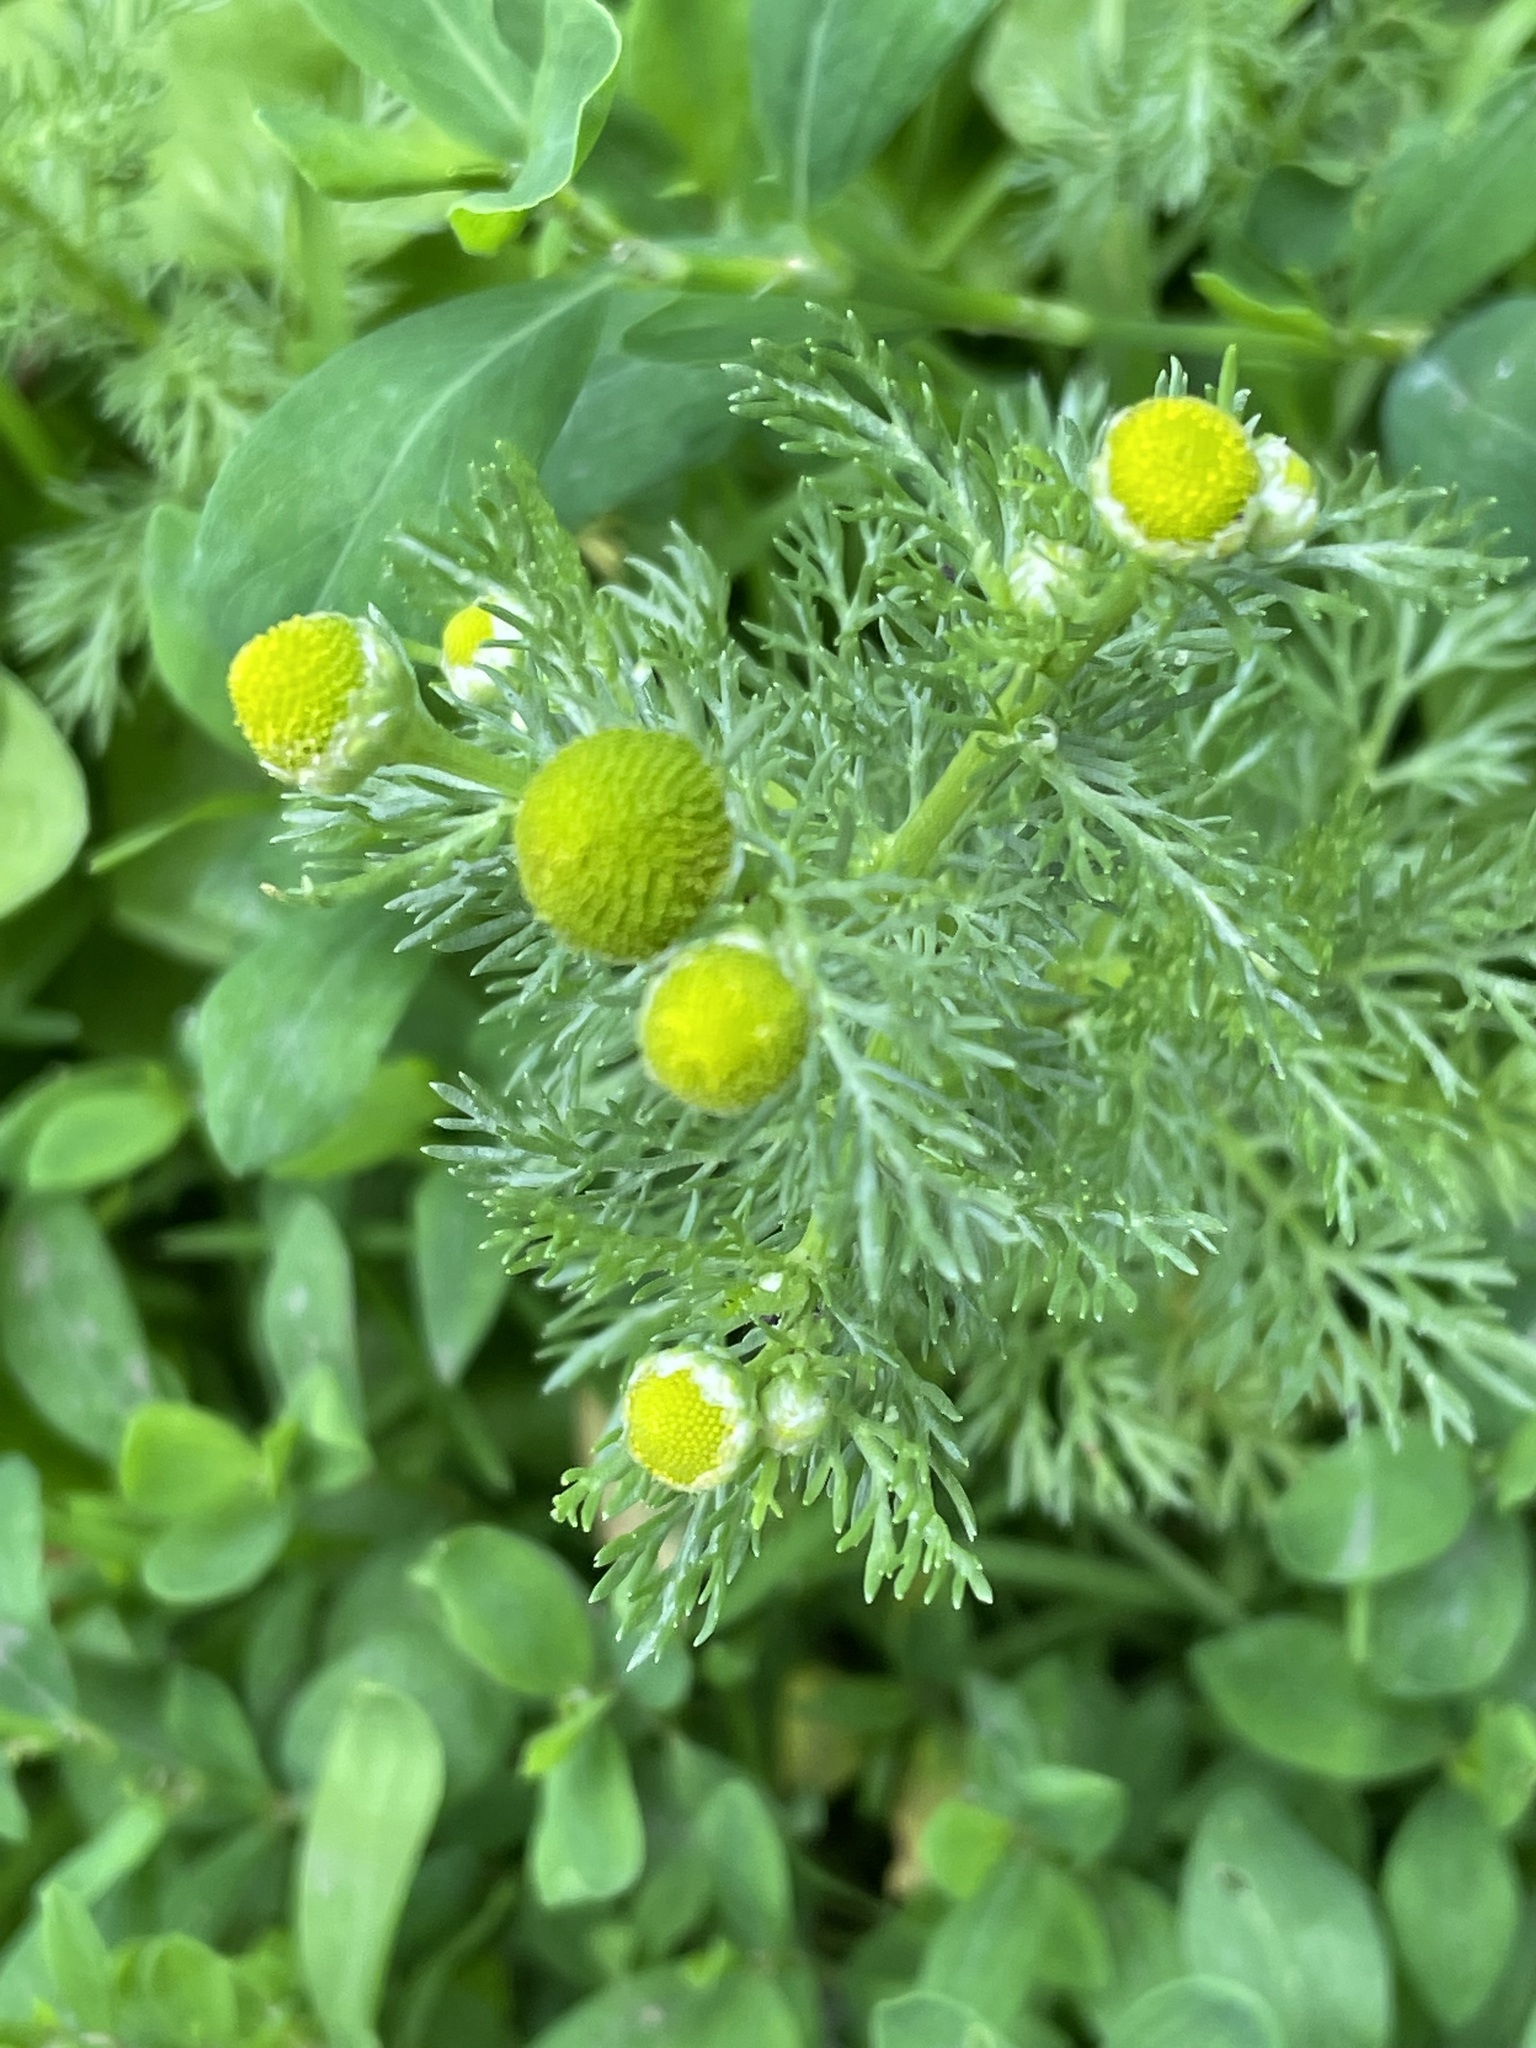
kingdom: Plantae
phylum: Tracheophyta
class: Magnoliopsida
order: Asterales
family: Asteraceae
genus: Matricaria
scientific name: Matricaria discoidea
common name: Disc mayweed
